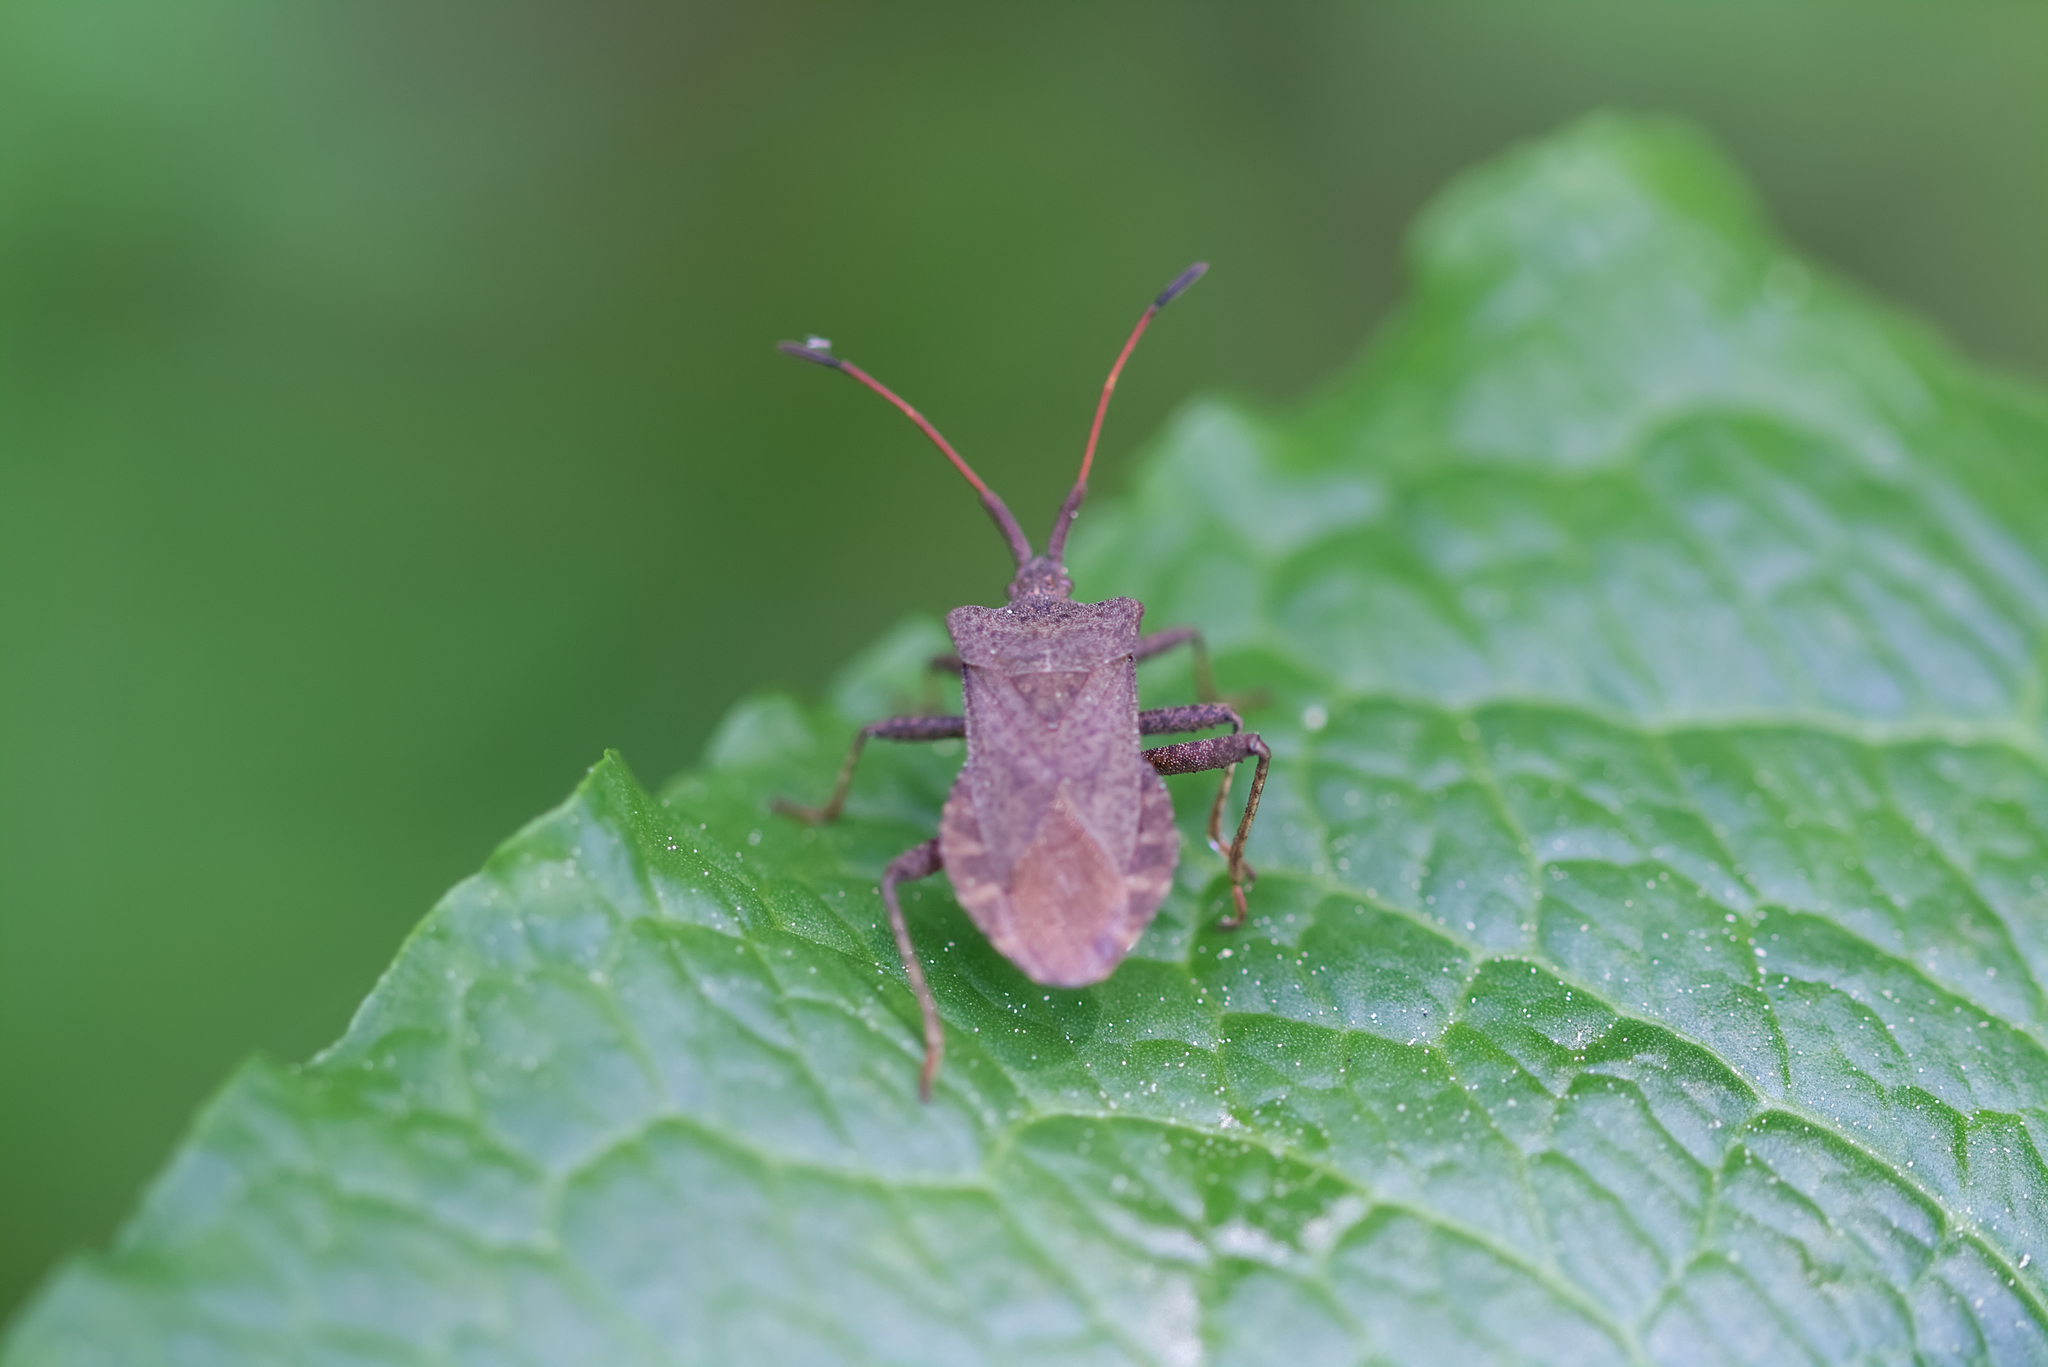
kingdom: Animalia
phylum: Arthropoda
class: Insecta
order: Hemiptera
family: Coreidae
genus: Coreus
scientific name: Coreus marginatus
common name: Dock bug
